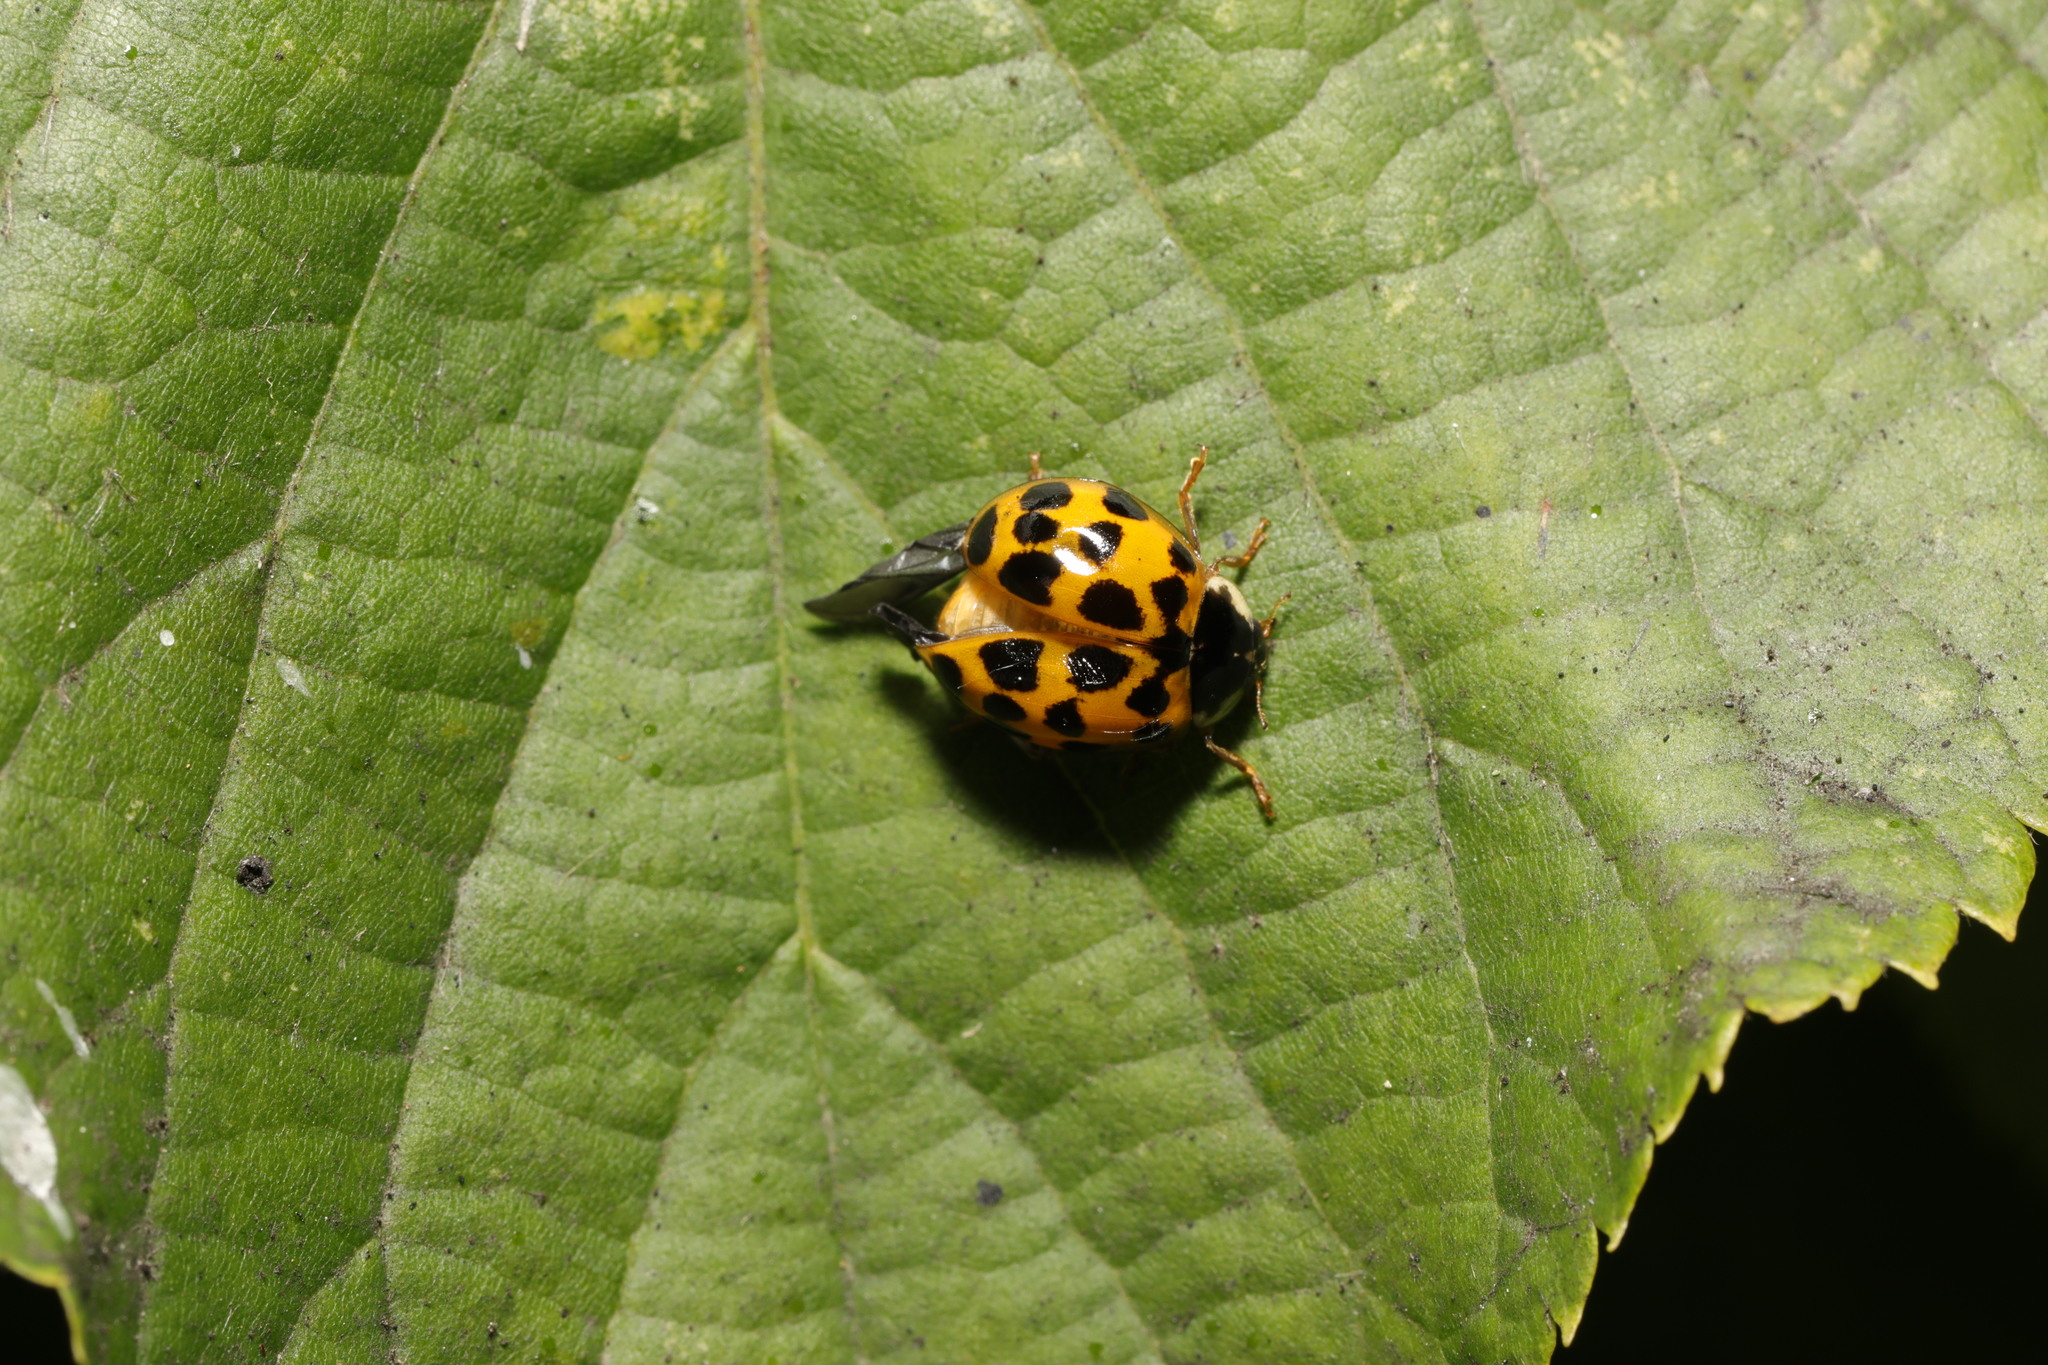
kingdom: Animalia
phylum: Arthropoda
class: Insecta
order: Coleoptera
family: Coccinellidae
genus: Harmonia
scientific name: Harmonia axyridis
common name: Harlequin ladybird
